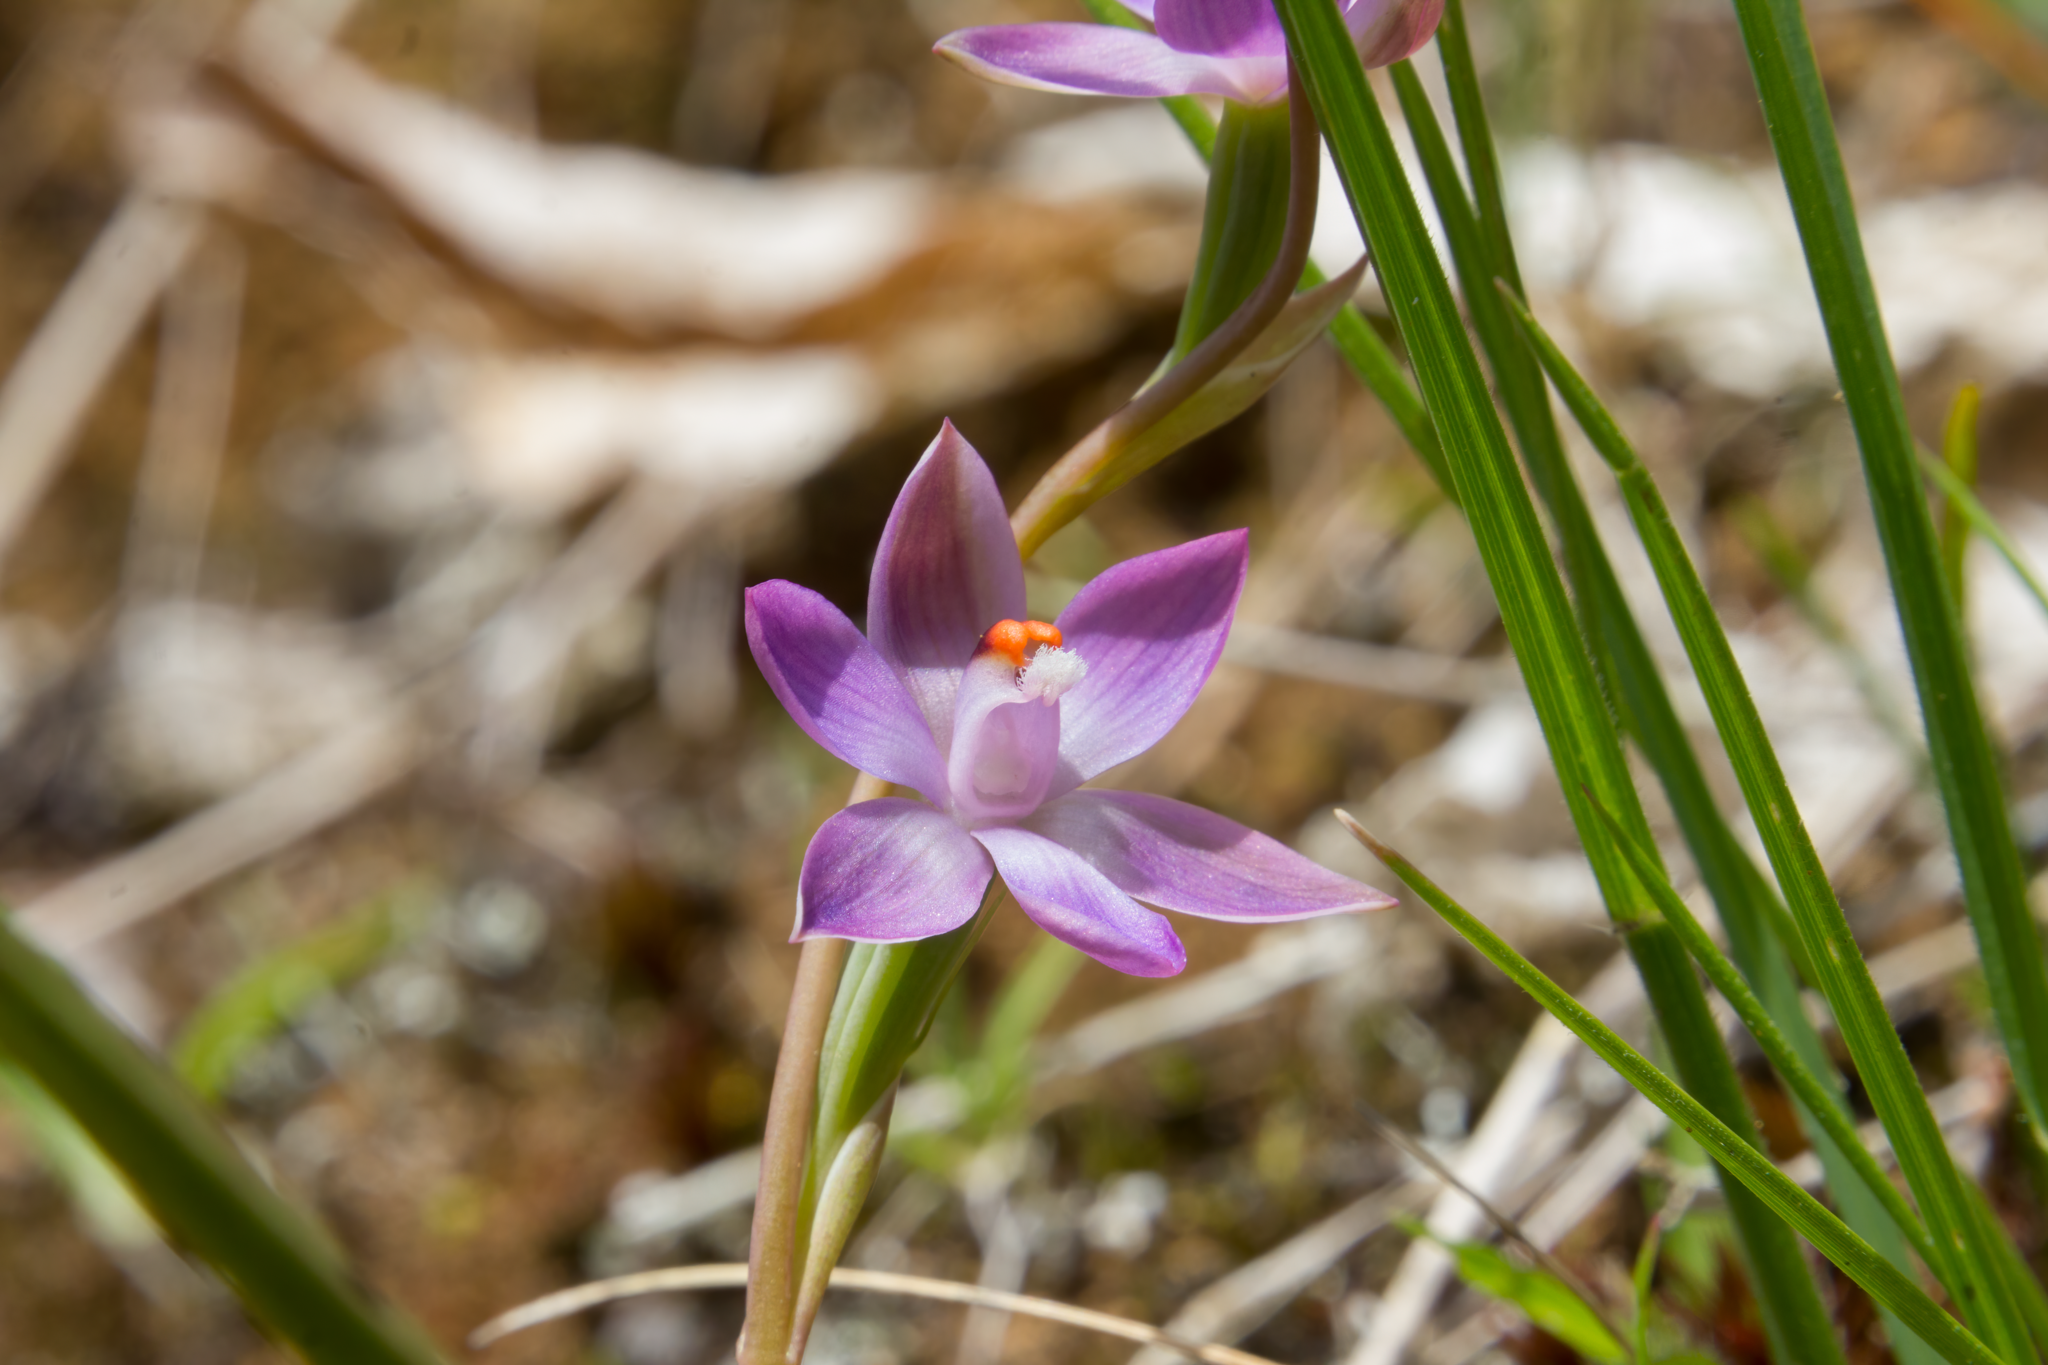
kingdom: Plantae
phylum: Tracheophyta
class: Liliopsida
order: Asparagales
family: Orchidaceae
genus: Thelymitra
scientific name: Thelymitra pauciflora
